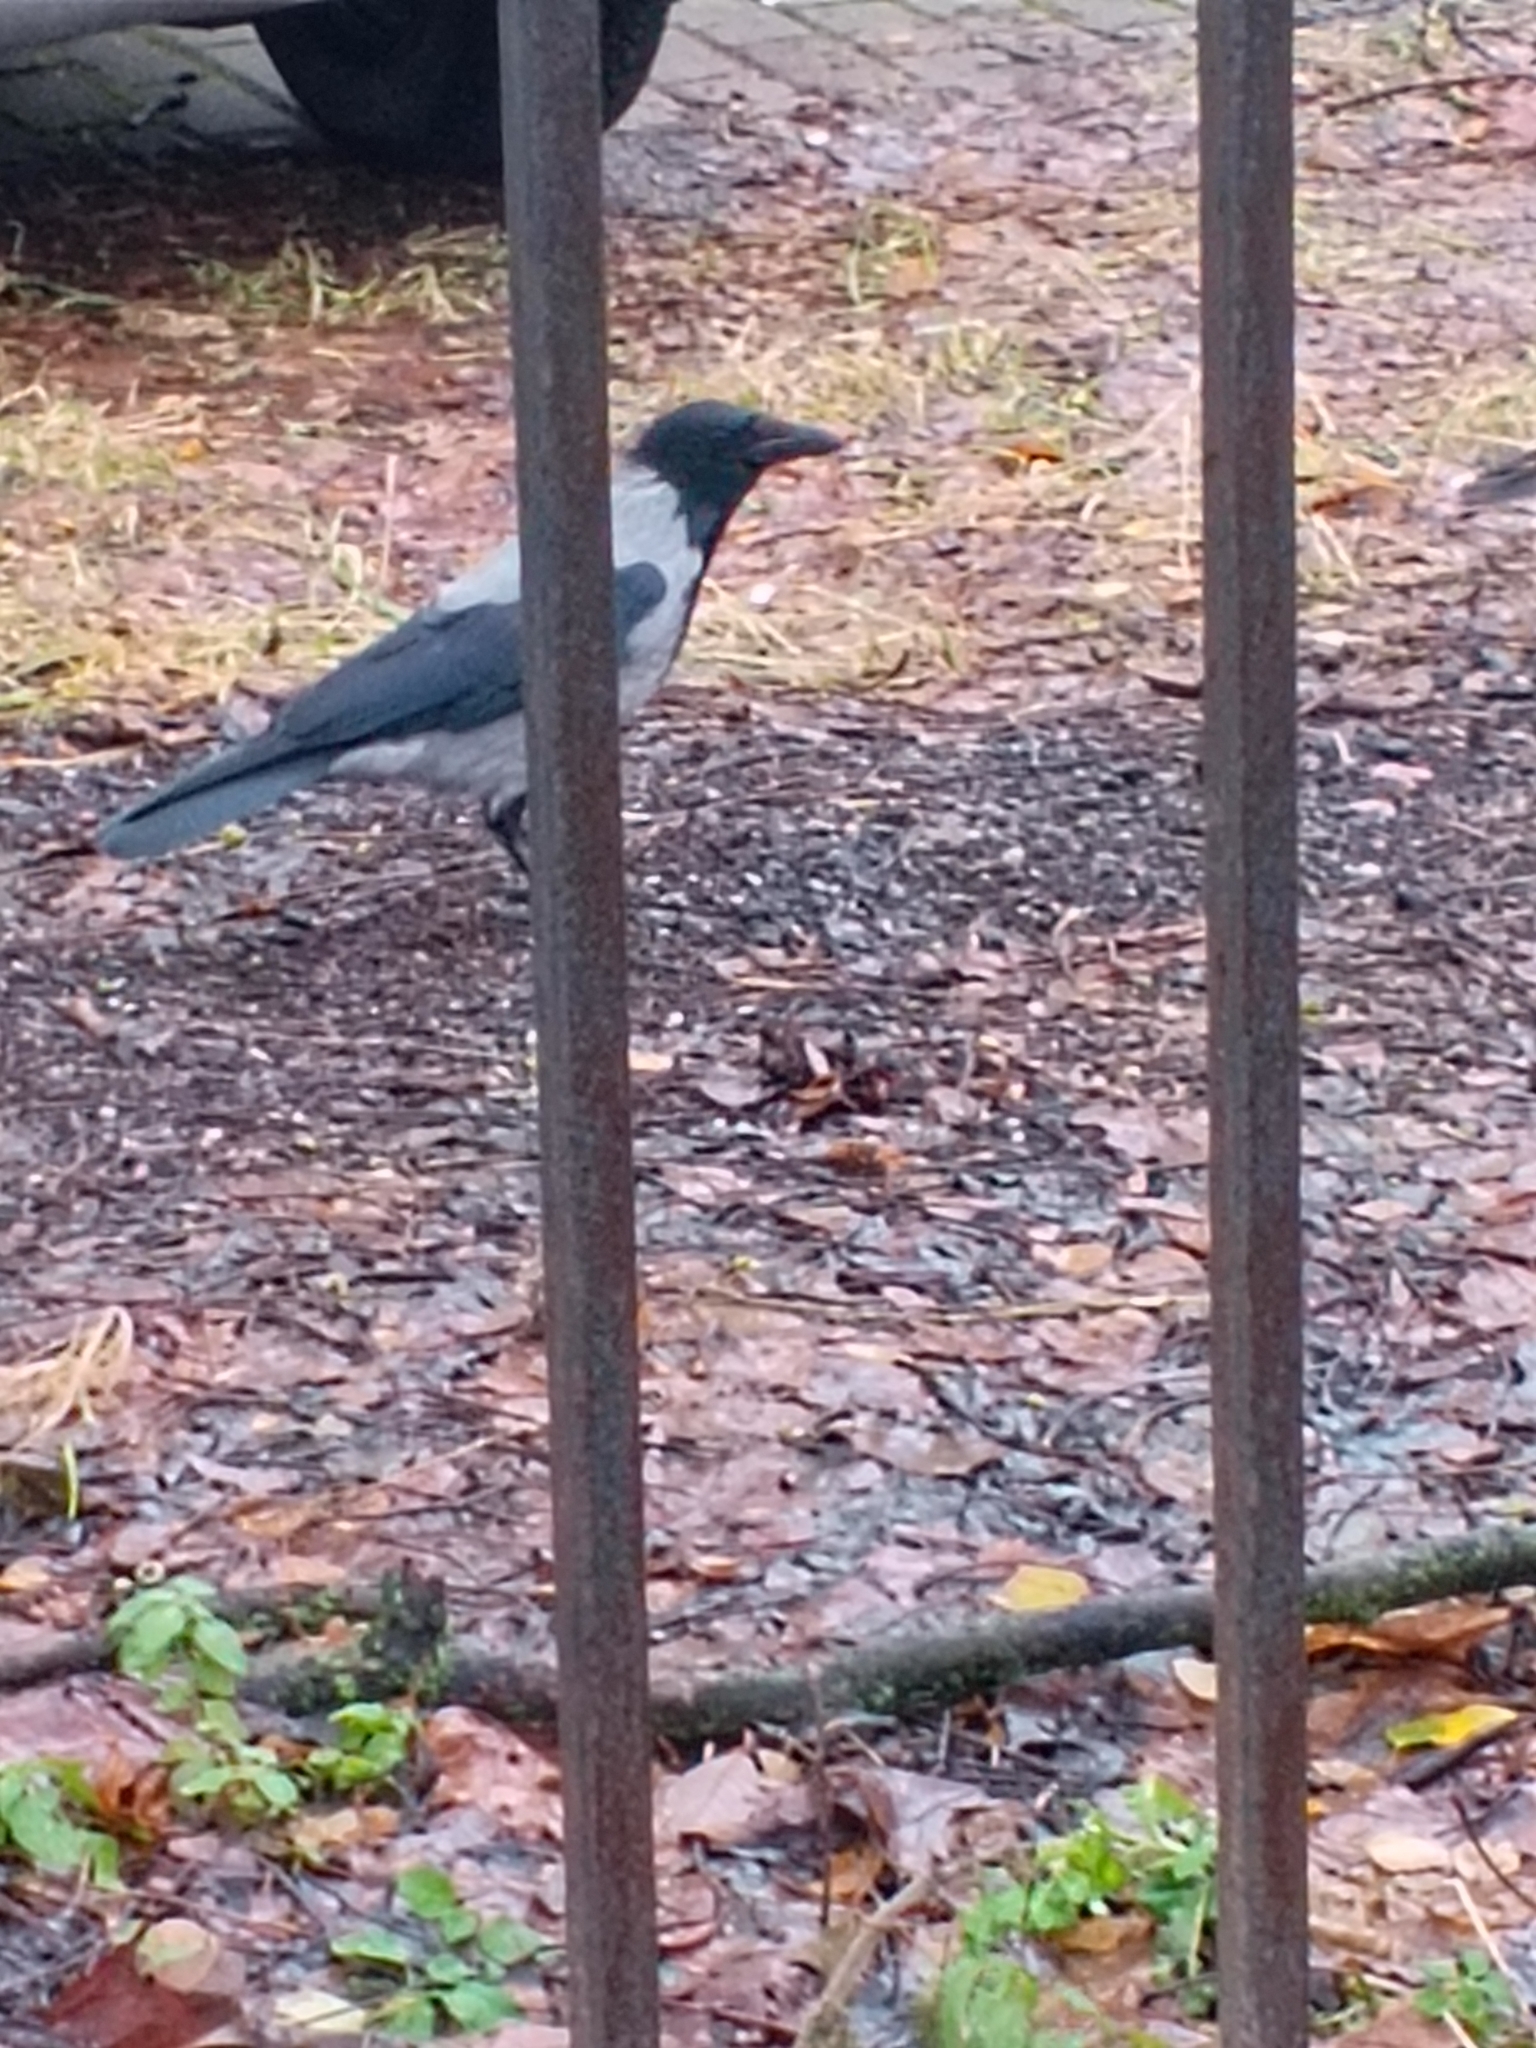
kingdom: Animalia
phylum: Chordata
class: Aves
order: Passeriformes
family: Corvidae
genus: Corvus
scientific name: Corvus cornix
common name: Hooded crow
